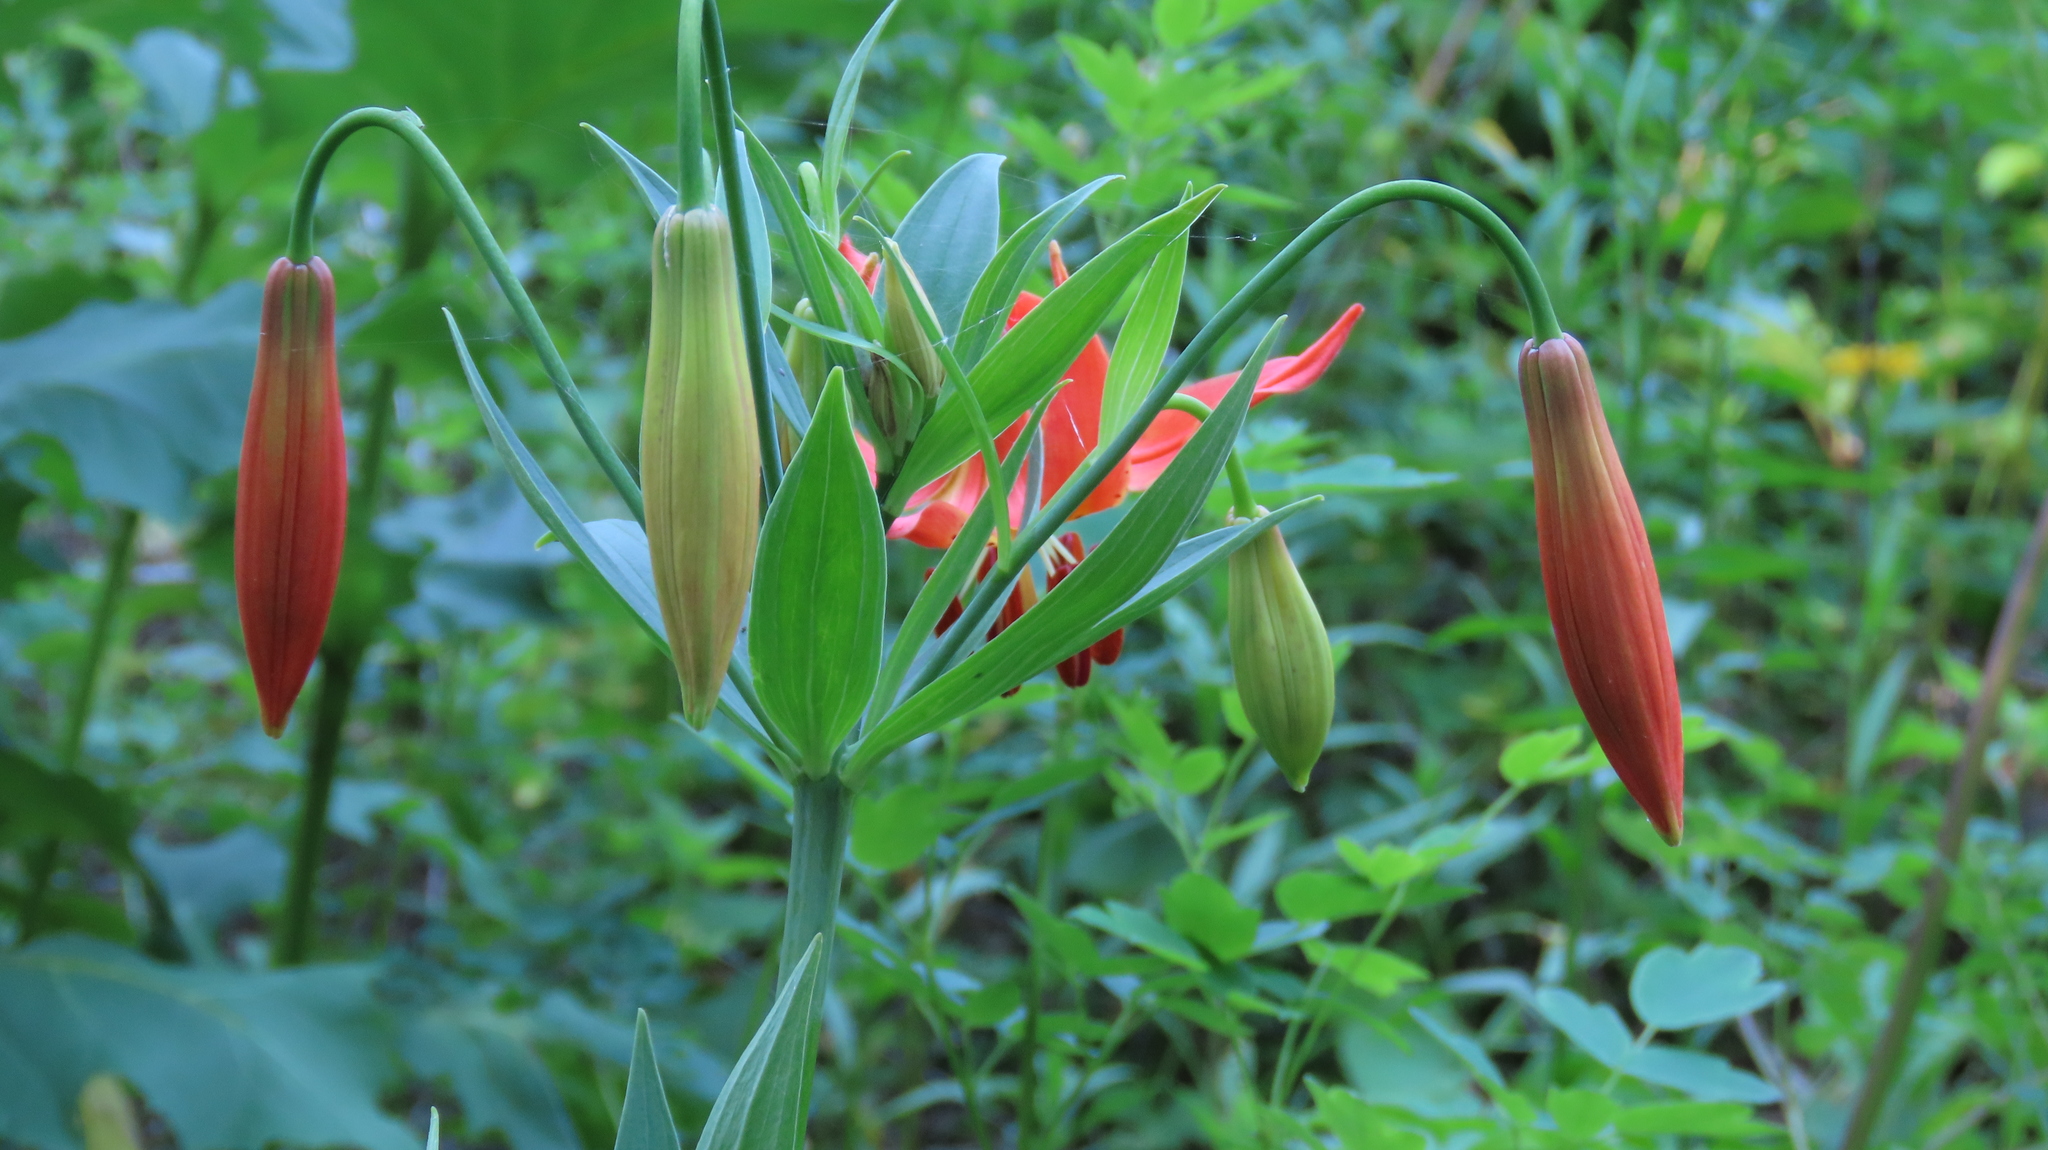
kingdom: Plantae
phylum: Tracheophyta
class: Liliopsida
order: Liliales
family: Liliaceae
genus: Lilium
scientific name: Lilium michiganense
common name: Michigan lily
